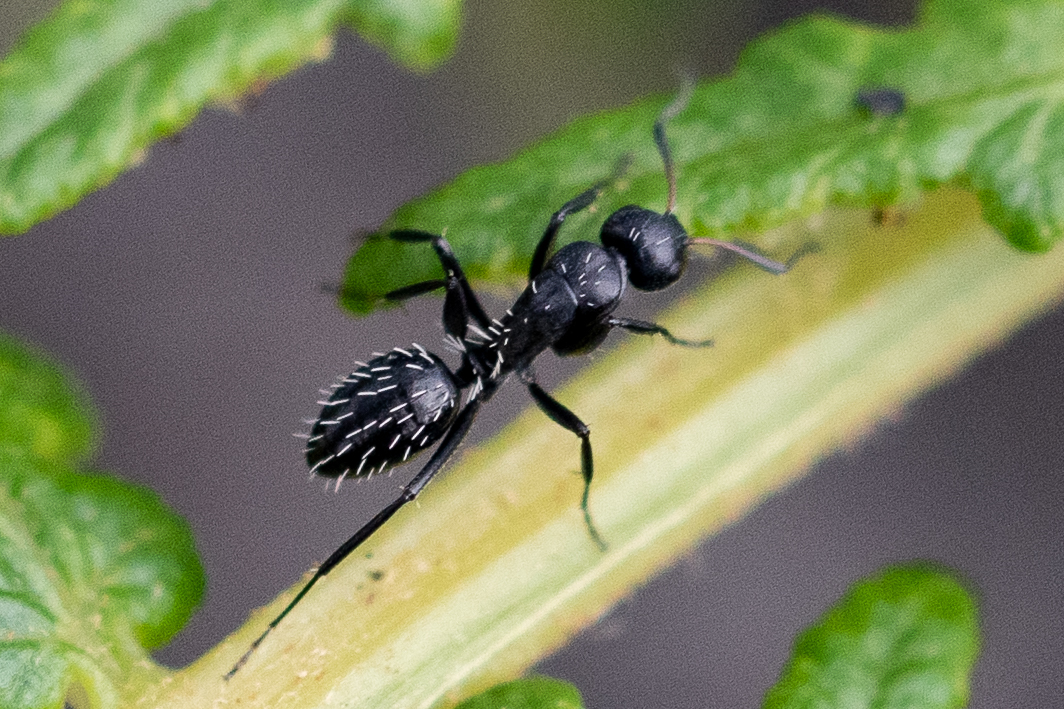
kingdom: Animalia
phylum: Arthropoda
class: Insecta
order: Hymenoptera
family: Formicidae
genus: Camponotus
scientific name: Camponotus niveosetosus
